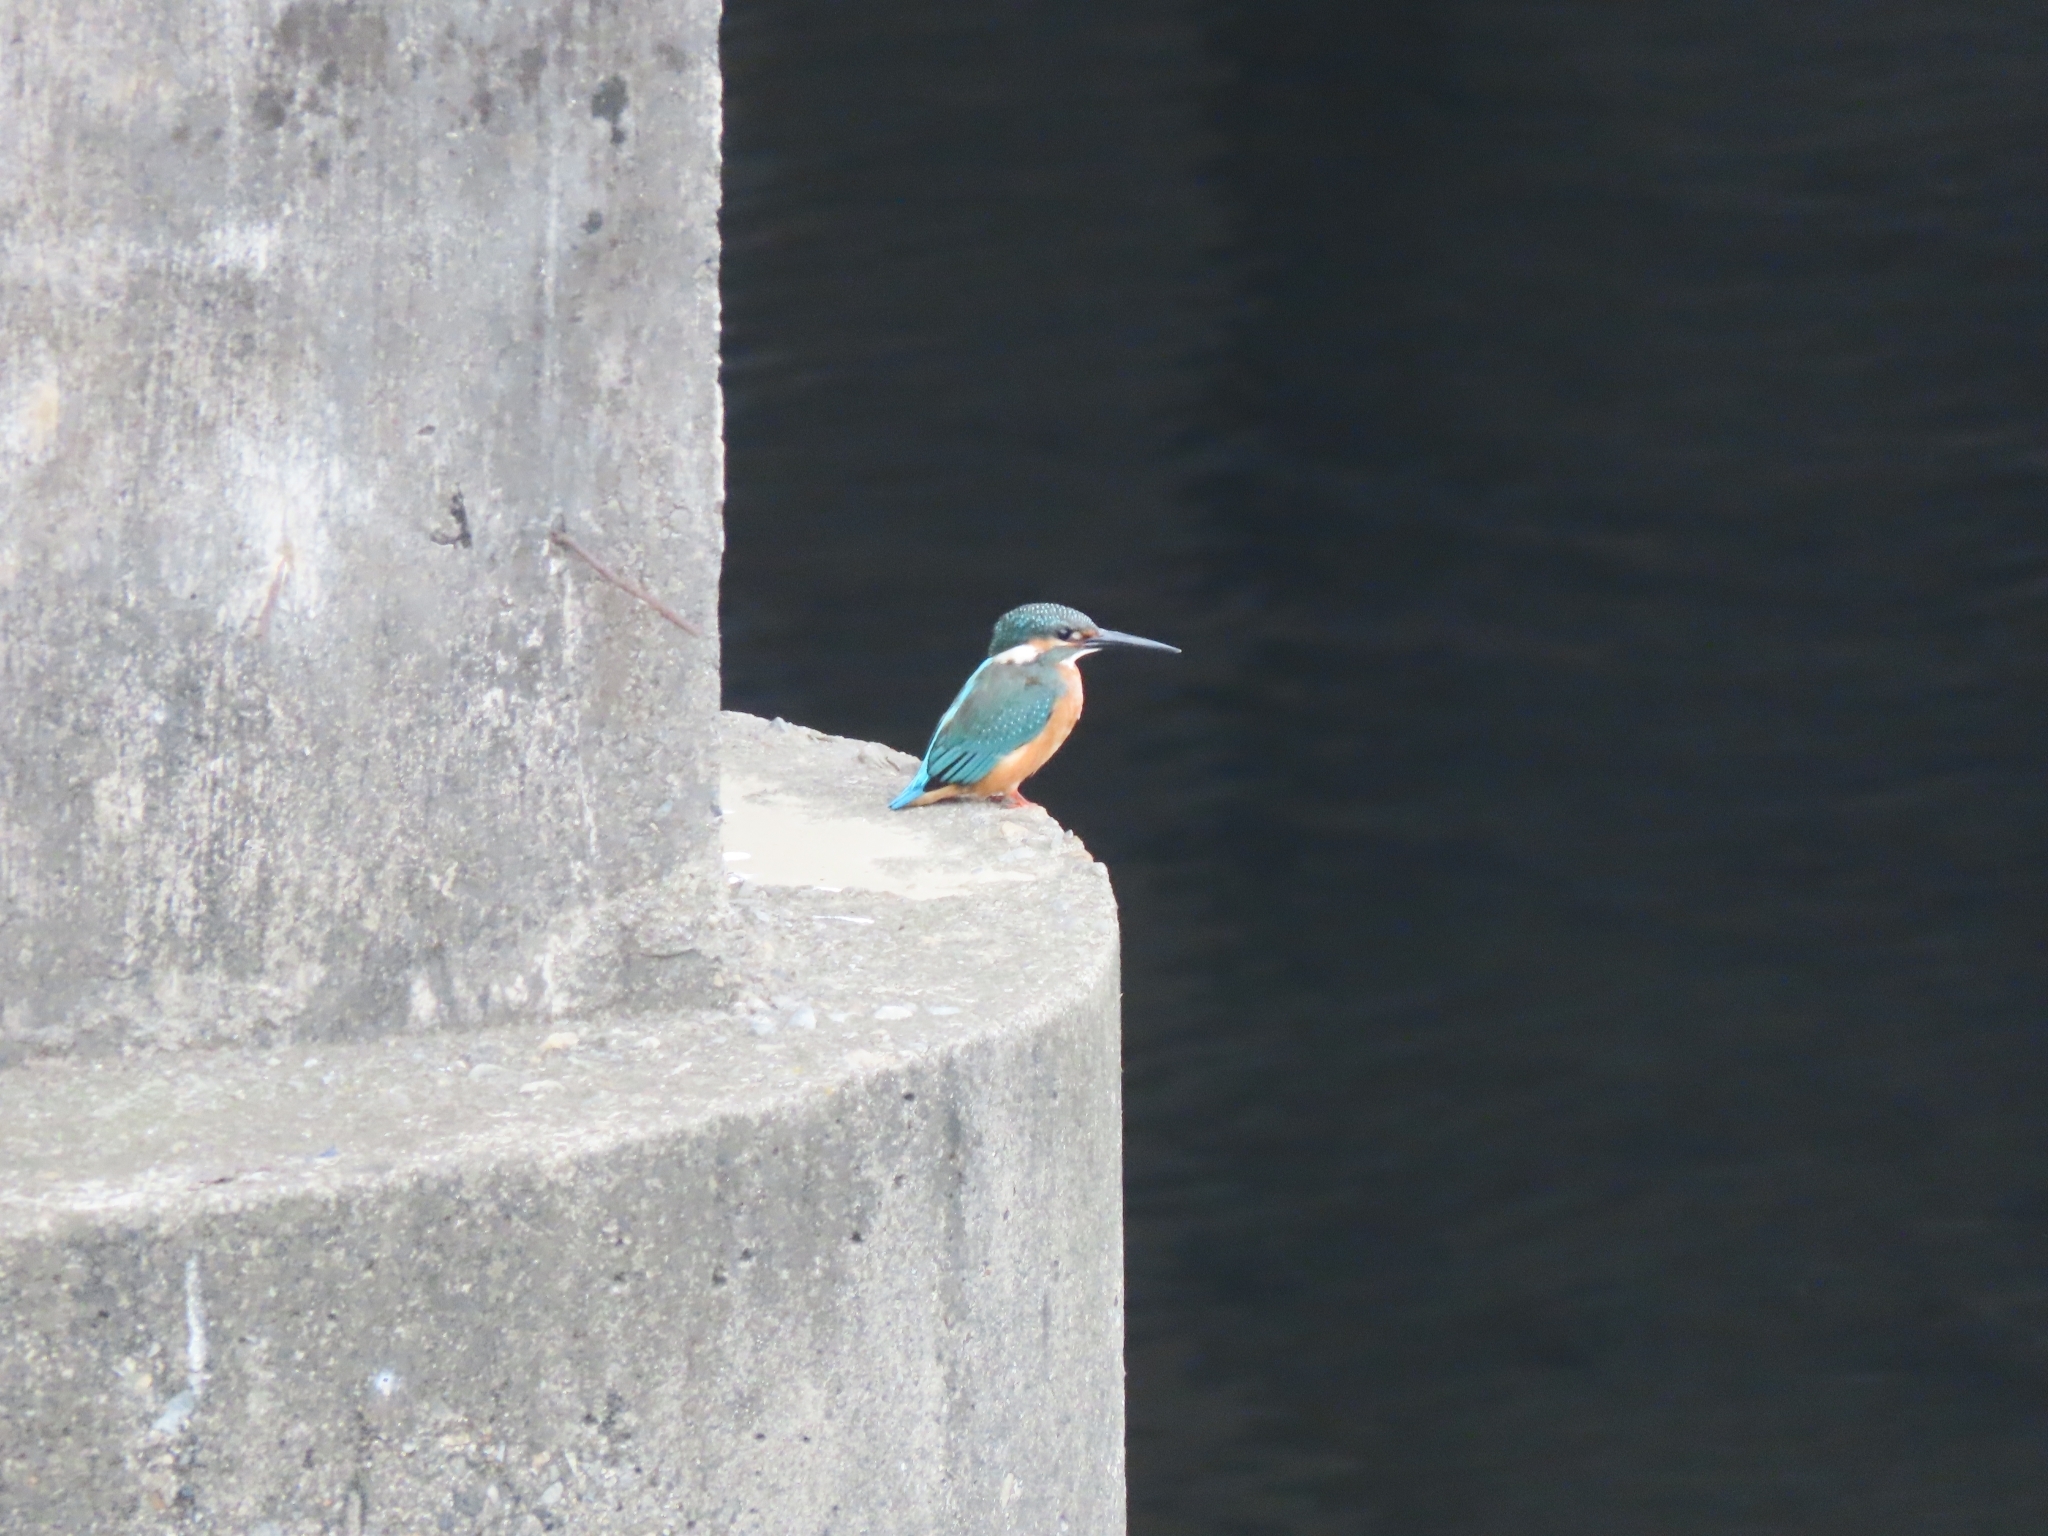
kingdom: Animalia
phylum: Chordata
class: Aves
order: Coraciiformes
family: Alcedinidae
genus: Alcedo
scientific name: Alcedo atthis
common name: Common kingfisher
